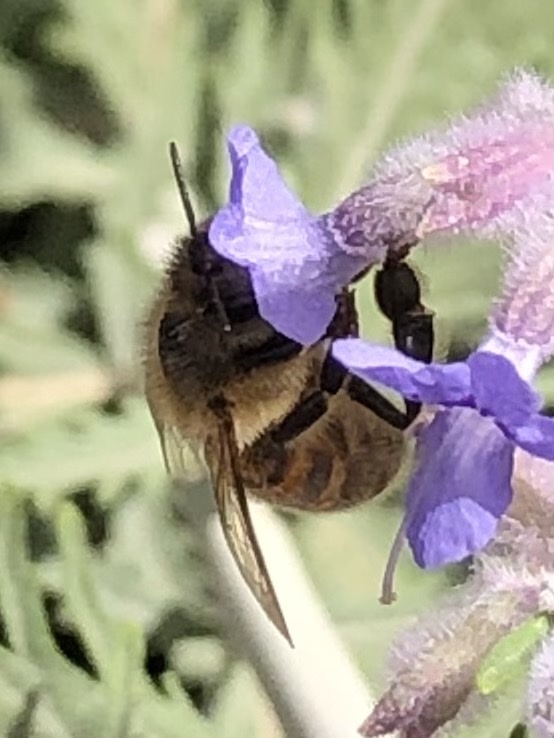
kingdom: Animalia
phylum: Arthropoda
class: Insecta
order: Hymenoptera
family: Apidae
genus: Apis
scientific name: Apis mellifera
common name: Honey bee
